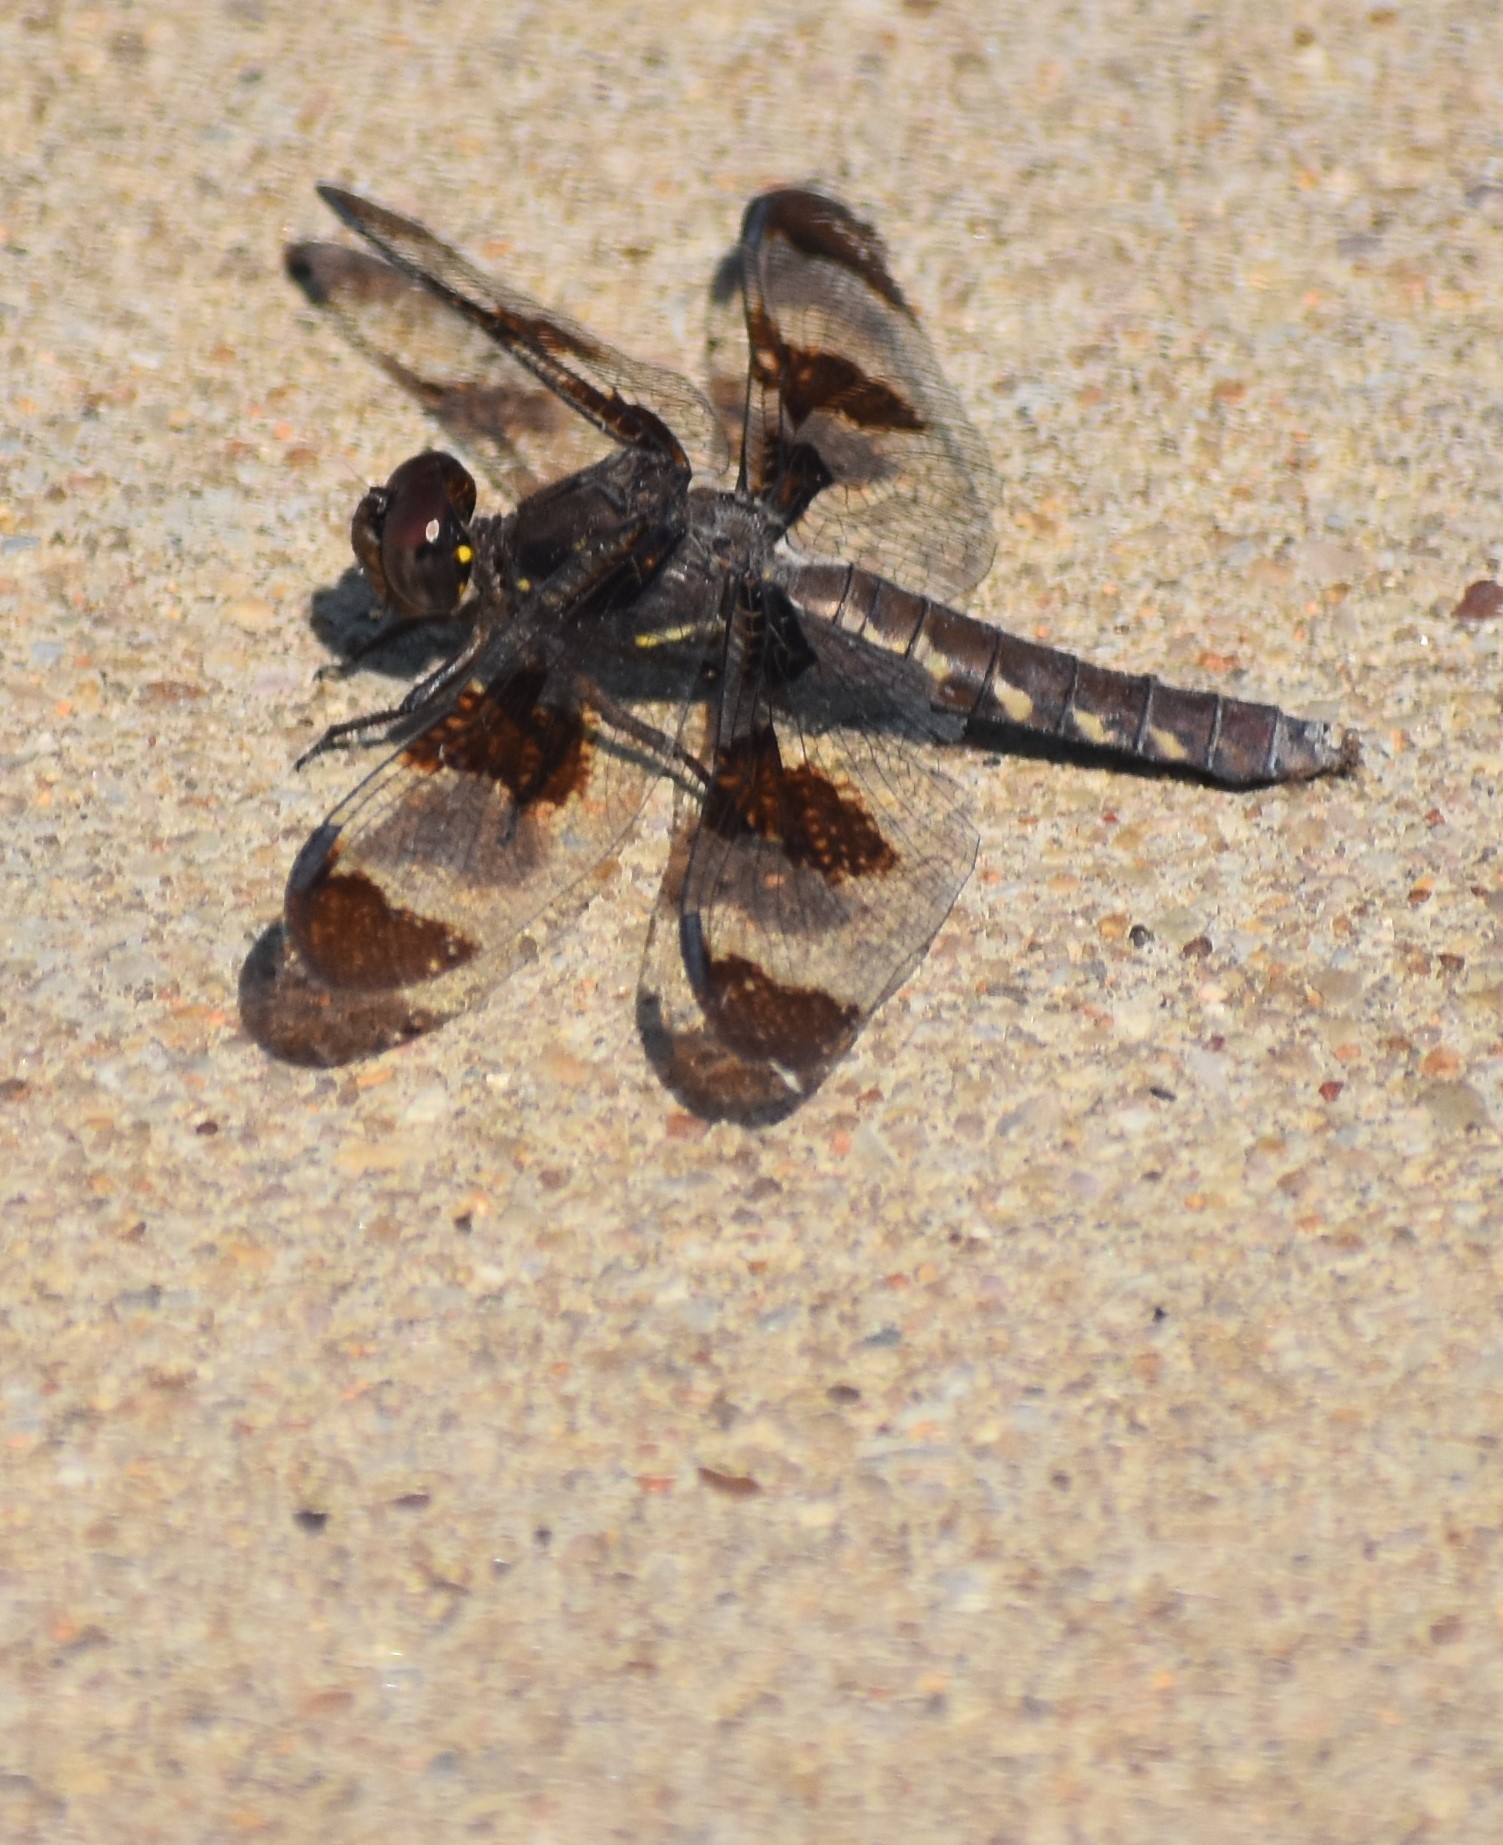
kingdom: Animalia
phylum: Arthropoda
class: Insecta
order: Odonata
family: Libellulidae
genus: Plathemis
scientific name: Plathemis lydia
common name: Common whitetail
